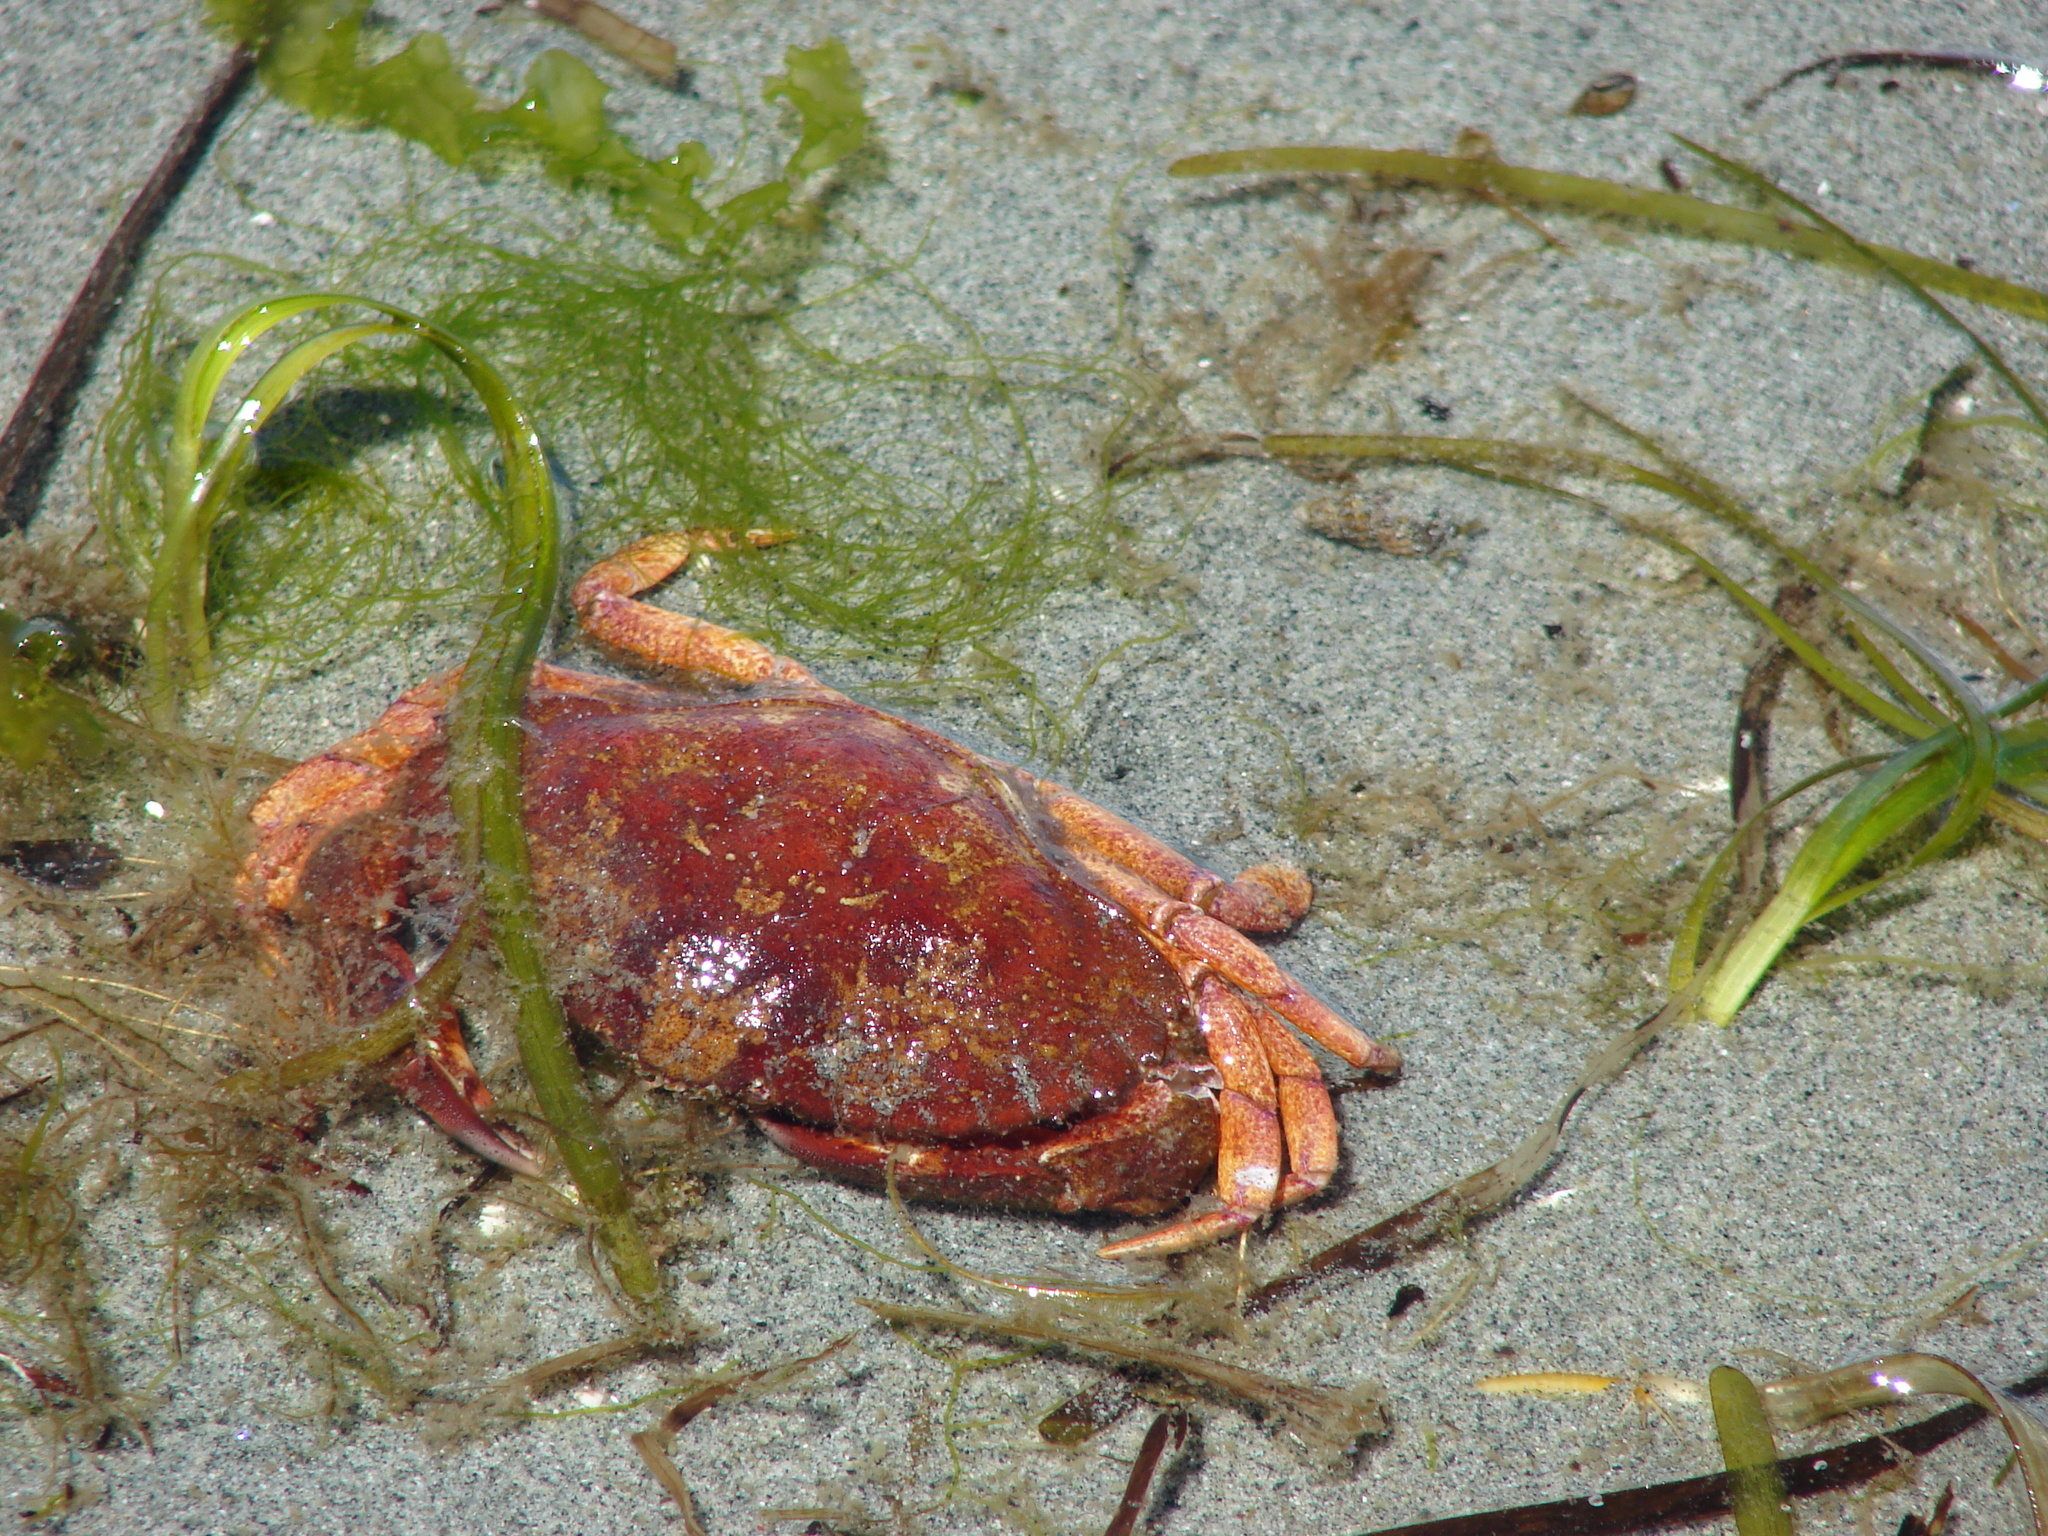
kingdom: Animalia
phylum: Arthropoda
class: Malacostraca
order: Decapoda
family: Cancridae
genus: Cancer
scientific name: Cancer productus
